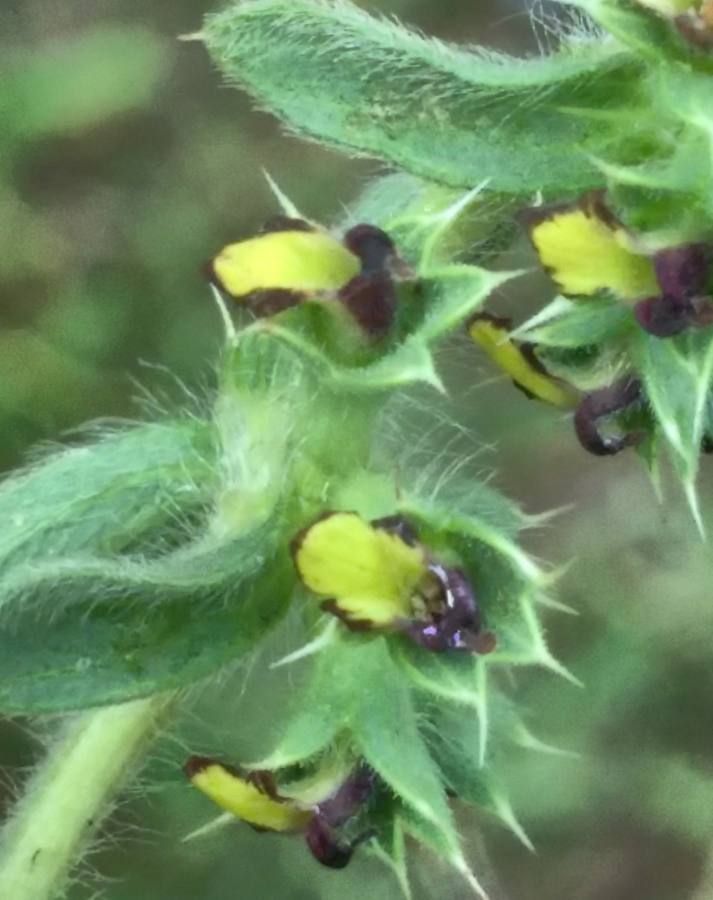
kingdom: Plantae
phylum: Tracheophyta
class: Magnoliopsida
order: Lamiales
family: Lamiaceae
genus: Sideritis
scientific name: Sideritis montana
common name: Mountain ironwort
